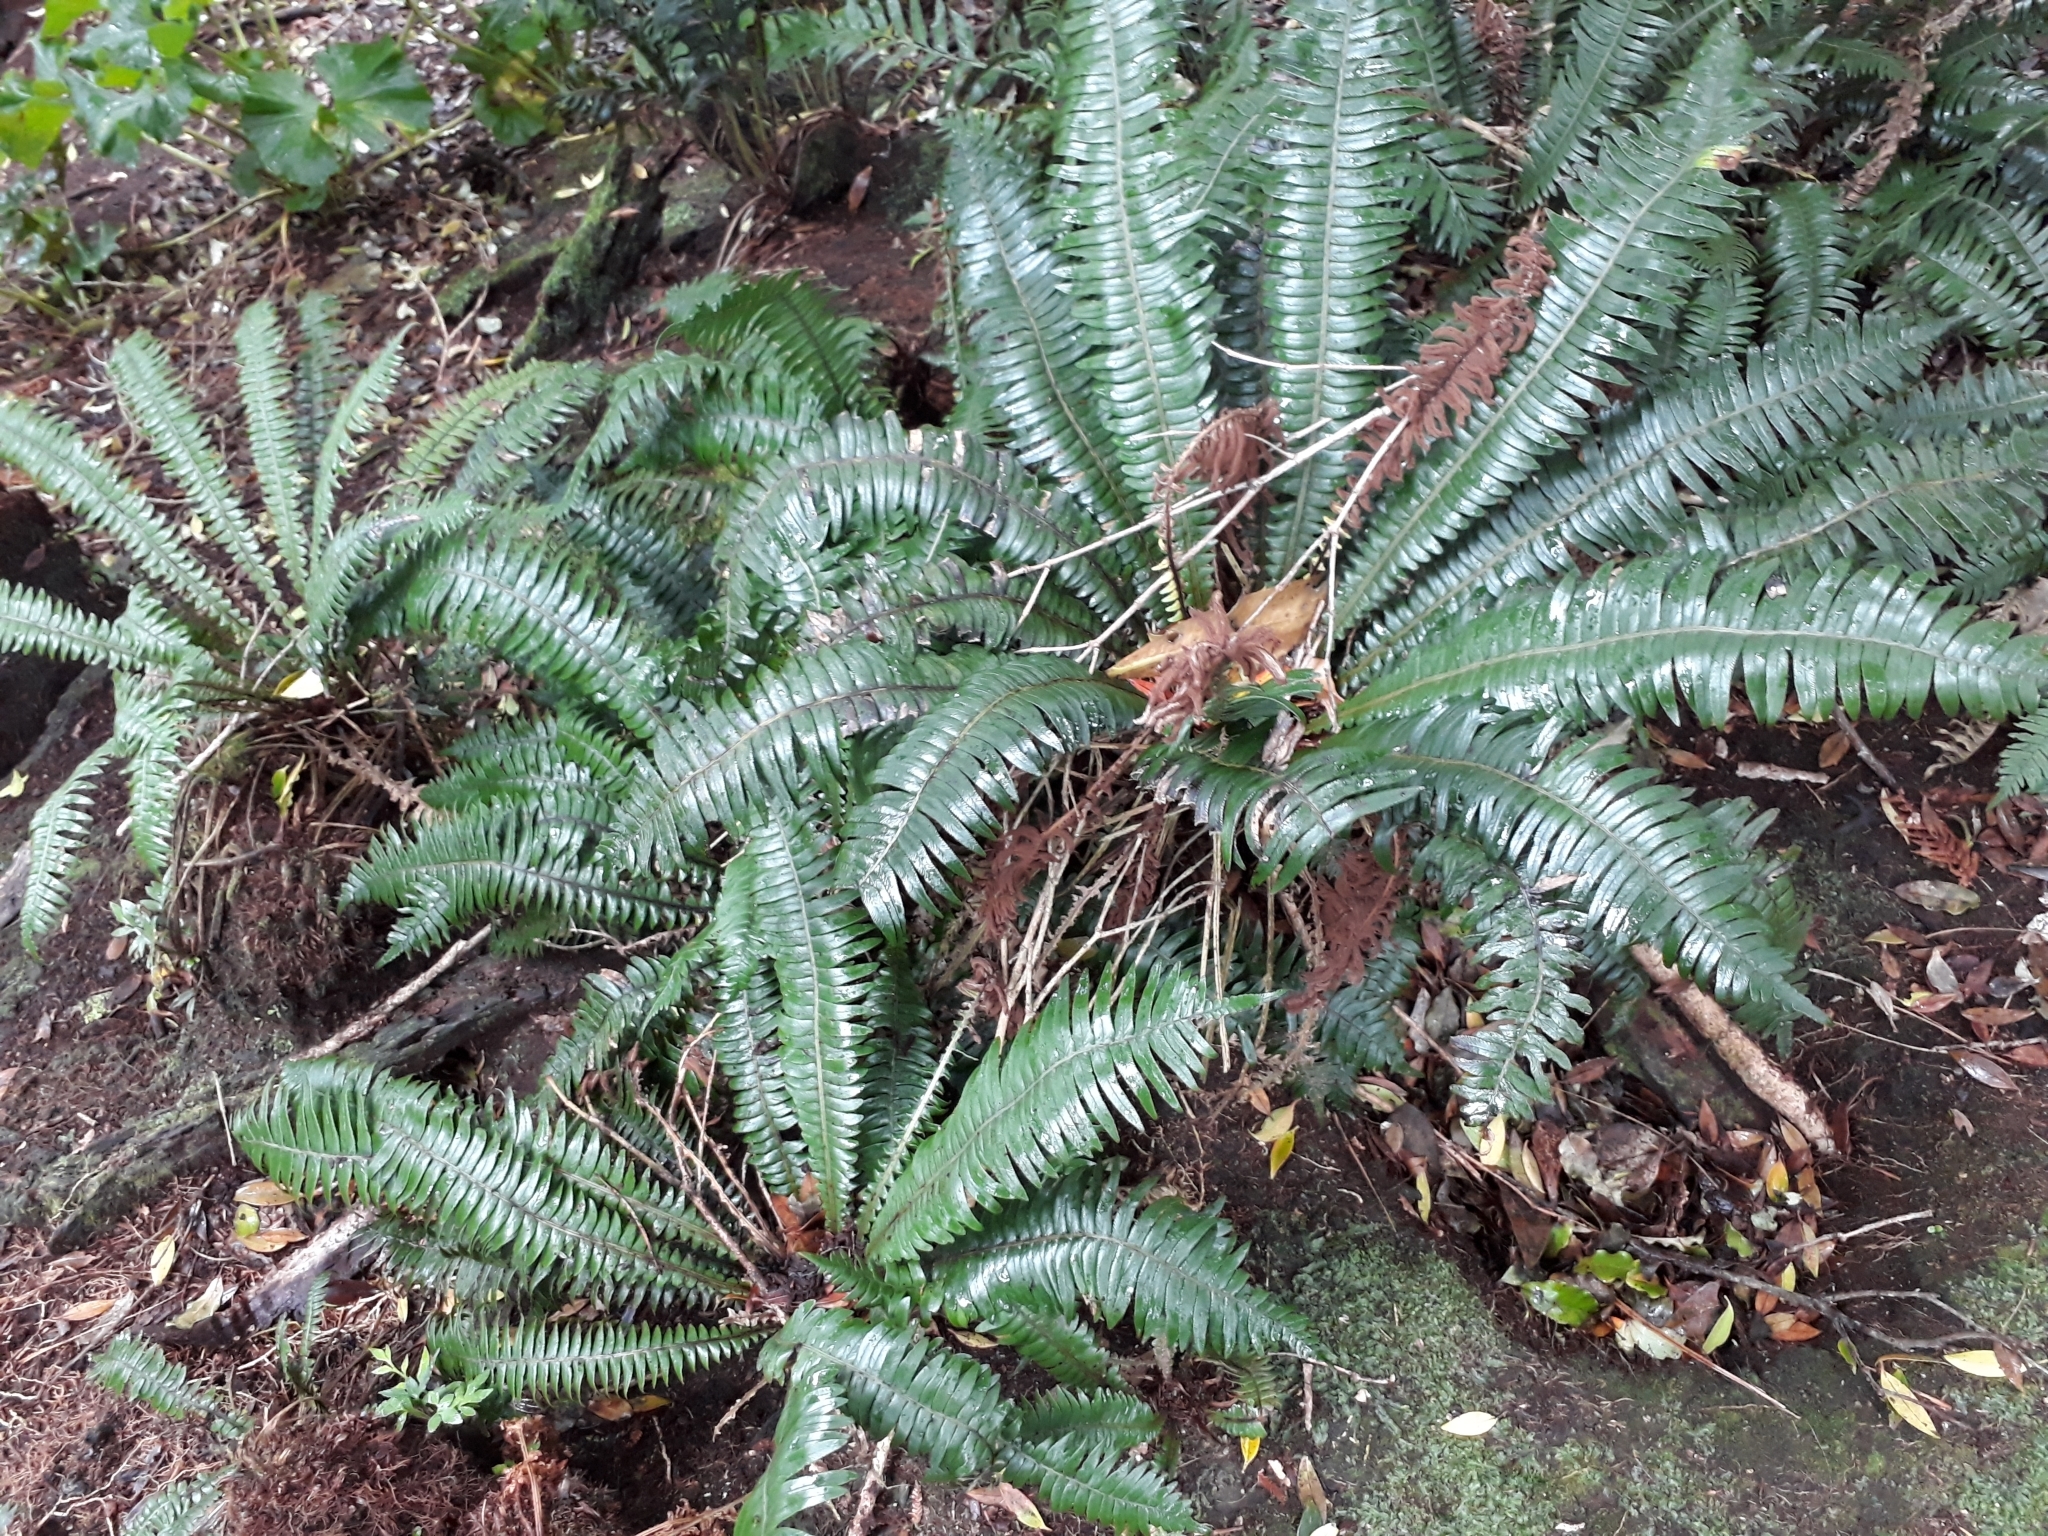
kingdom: Plantae
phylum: Tracheophyta
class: Polypodiopsida
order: Polypodiales
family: Blechnaceae
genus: Austroblechnum
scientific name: Austroblechnum durum
